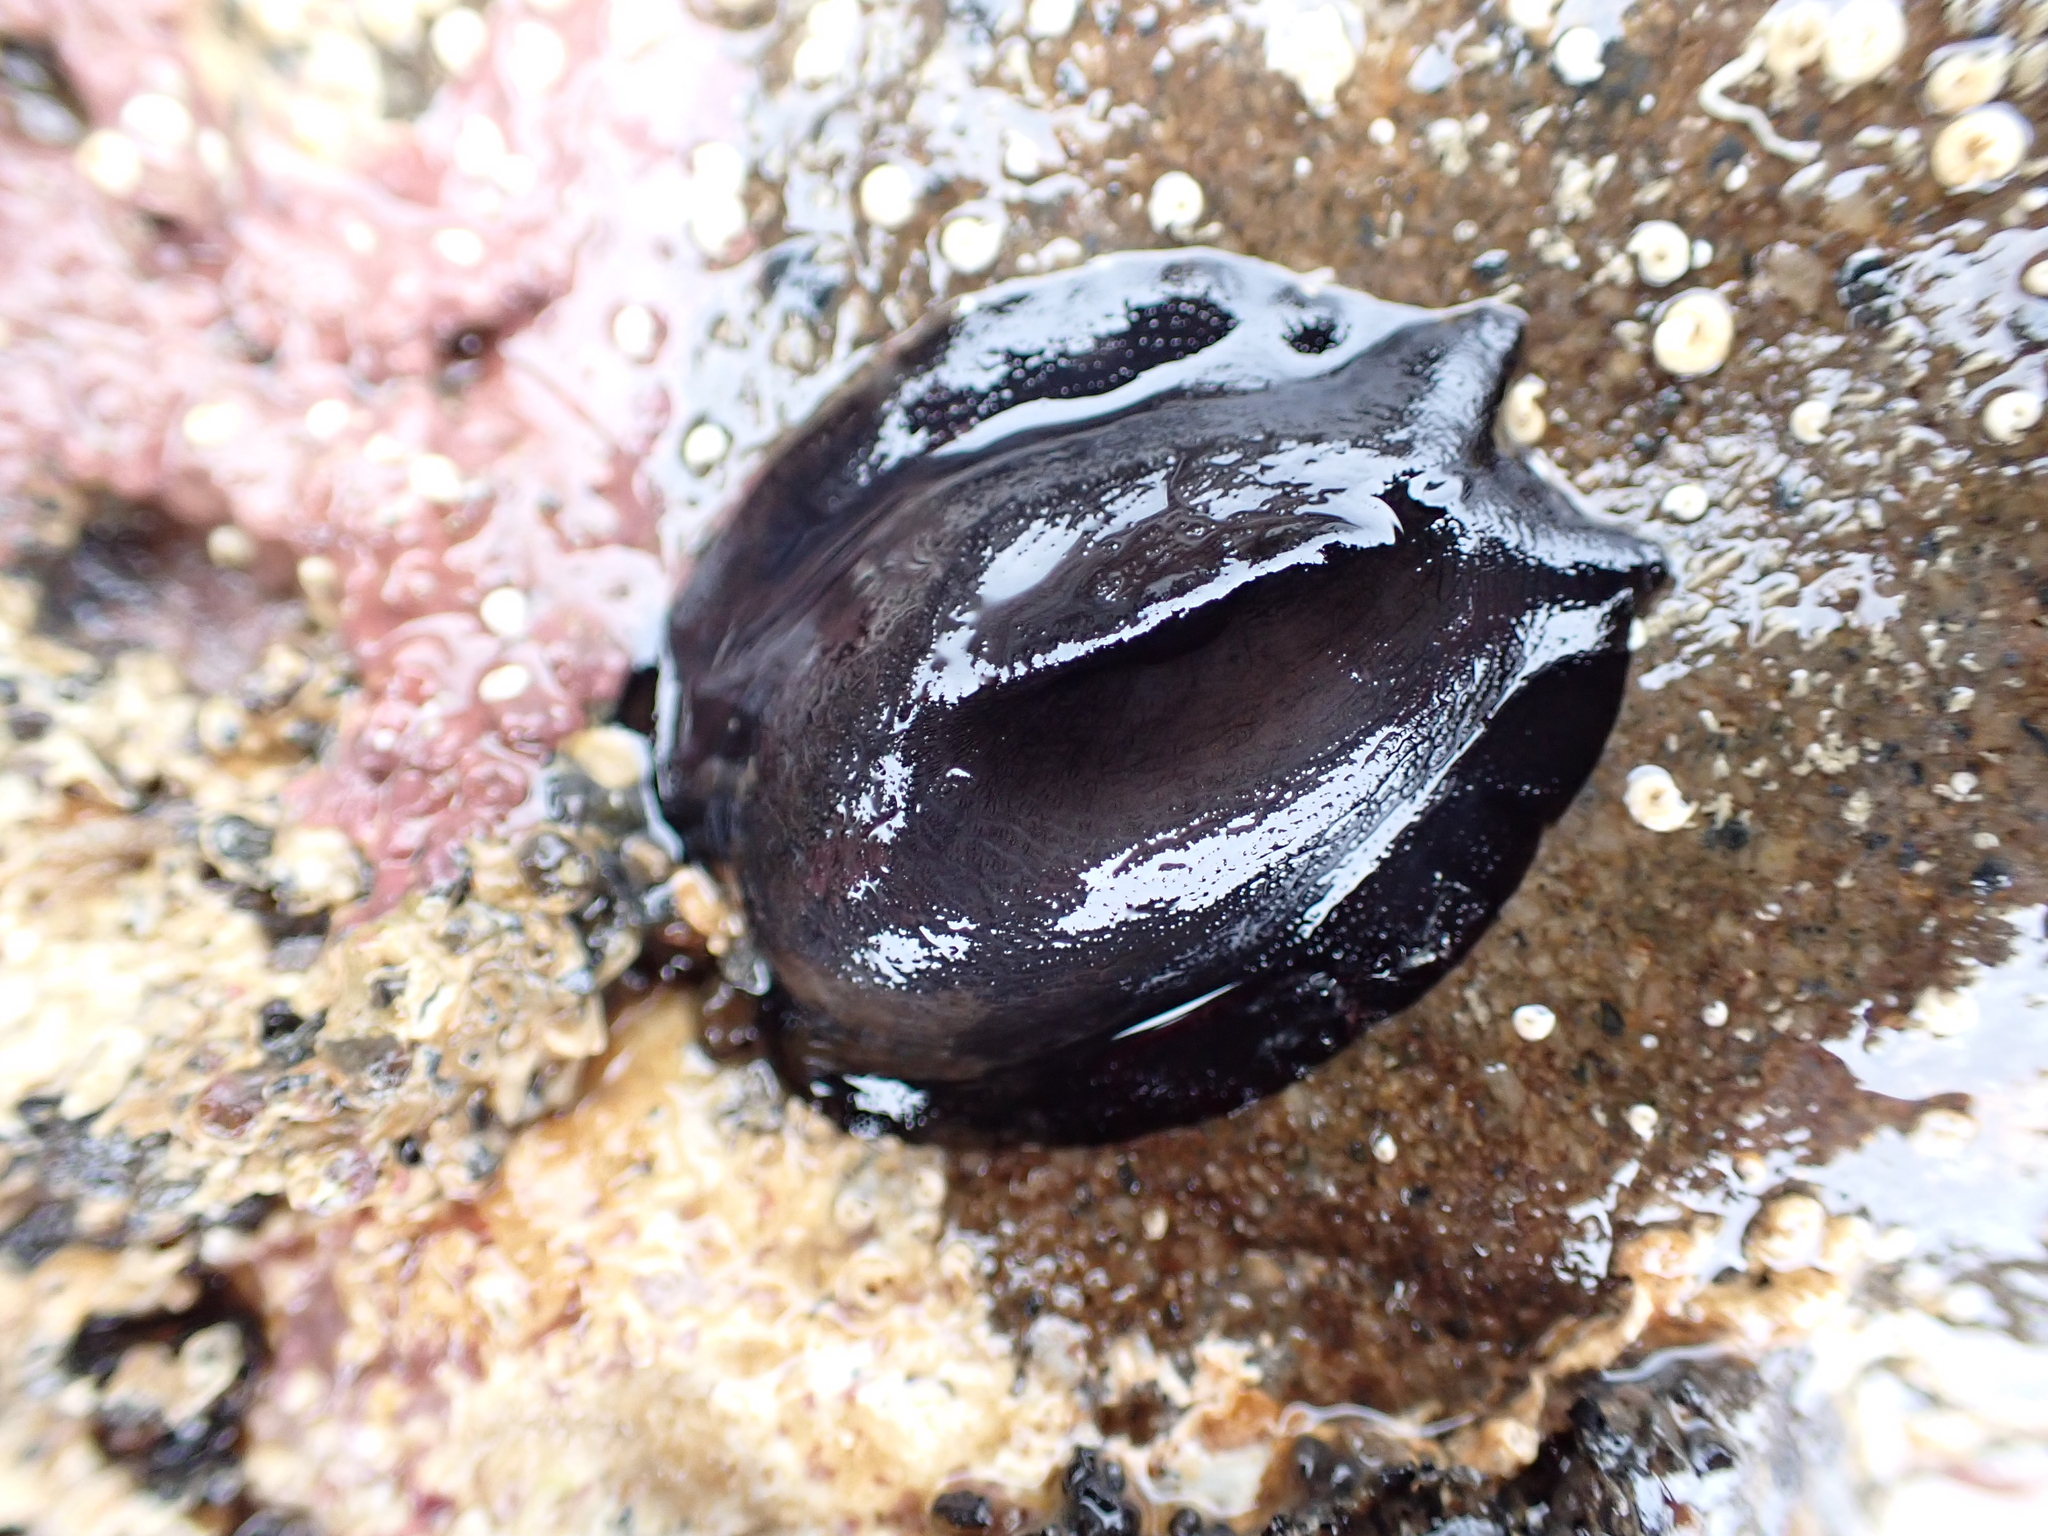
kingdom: Animalia
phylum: Mollusca
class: Gastropoda
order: Lepetellida
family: Fissurellidae
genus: Scutus
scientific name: Scutus breviculus
